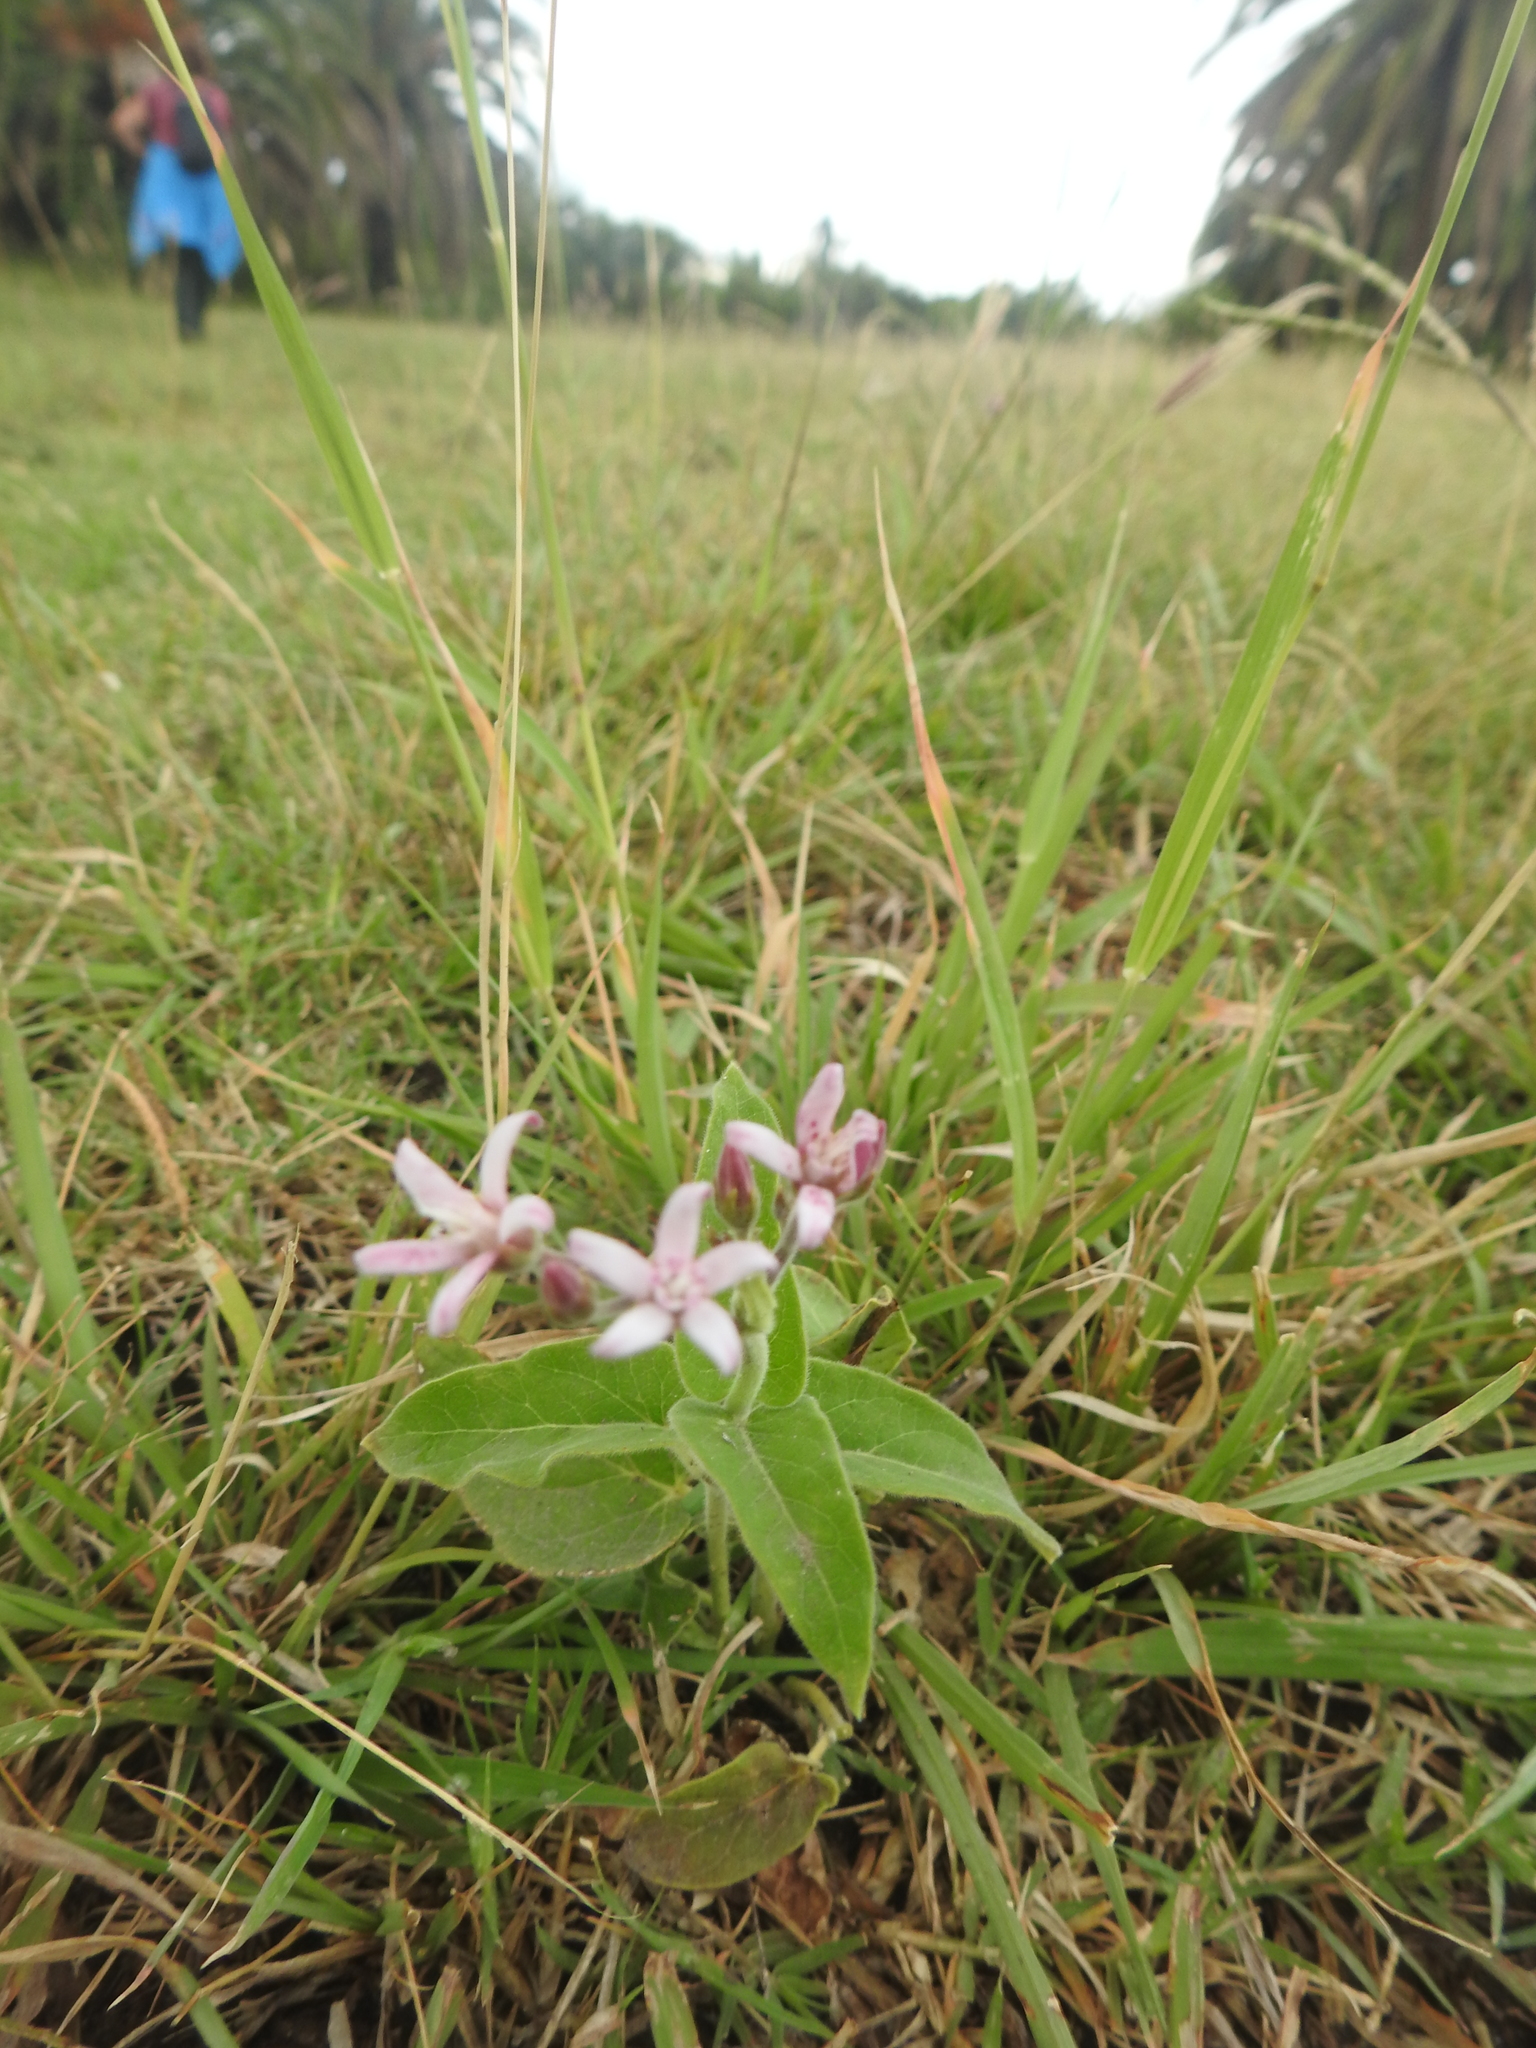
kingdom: Plantae
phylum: Tracheophyta
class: Magnoliopsida
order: Gentianales
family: Apocynaceae
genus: Oxypetalum
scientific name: Oxypetalum solanoides
